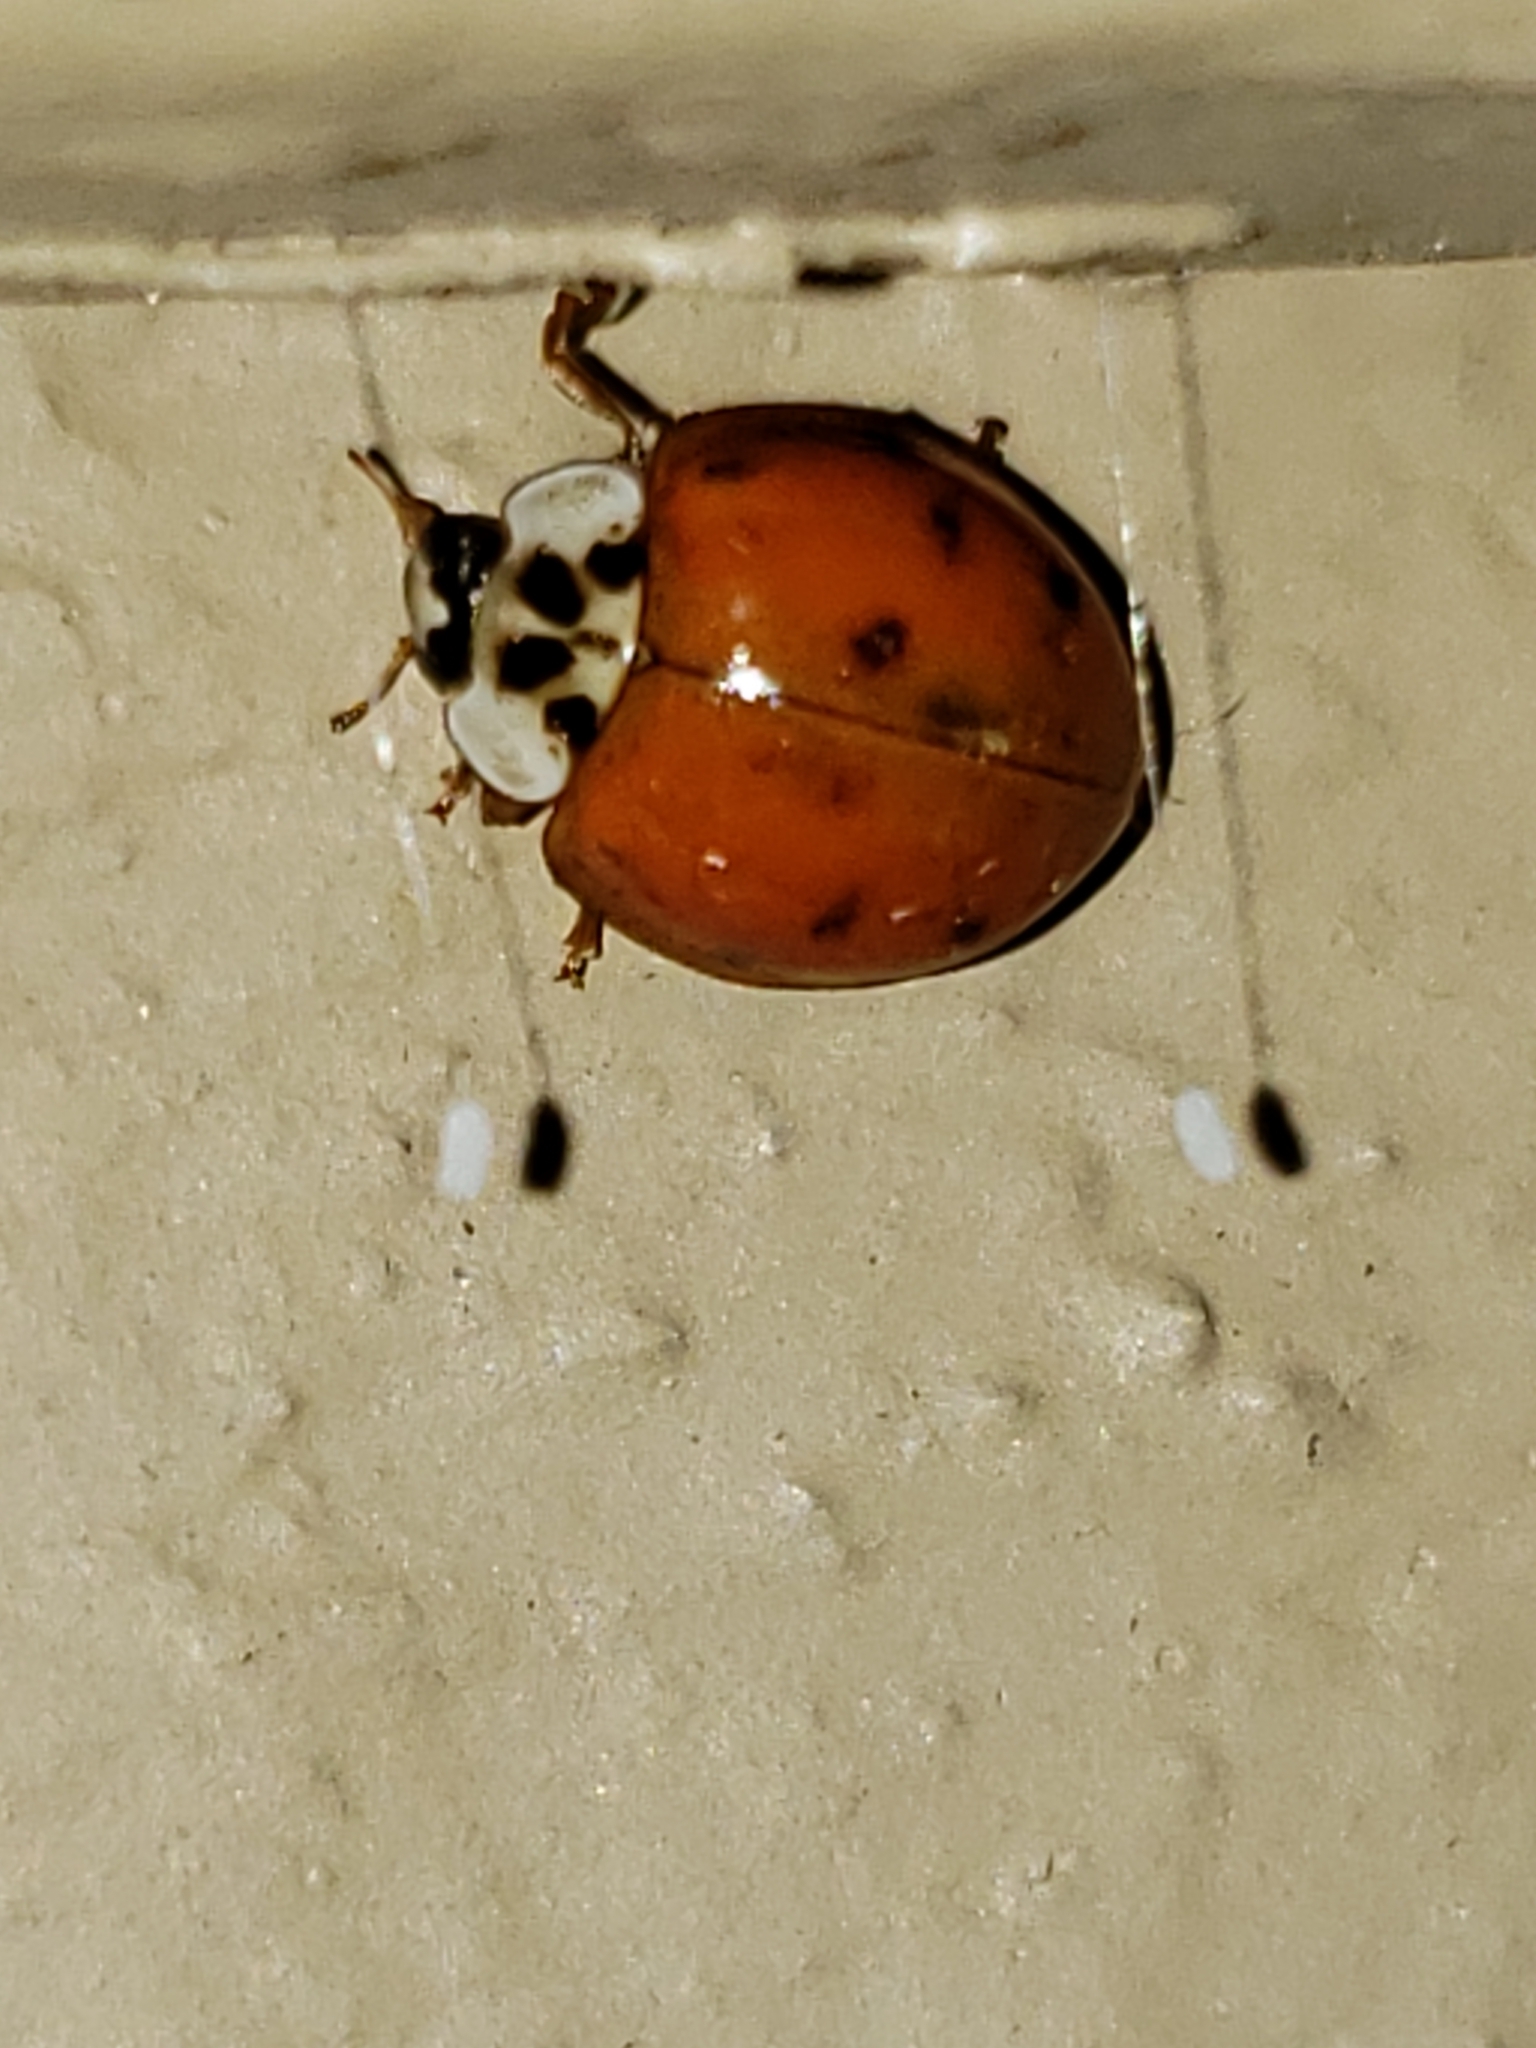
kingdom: Animalia
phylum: Arthropoda
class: Insecta
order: Coleoptera
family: Coccinellidae
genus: Harmonia
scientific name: Harmonia axyridis
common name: Harlequin ladybird
